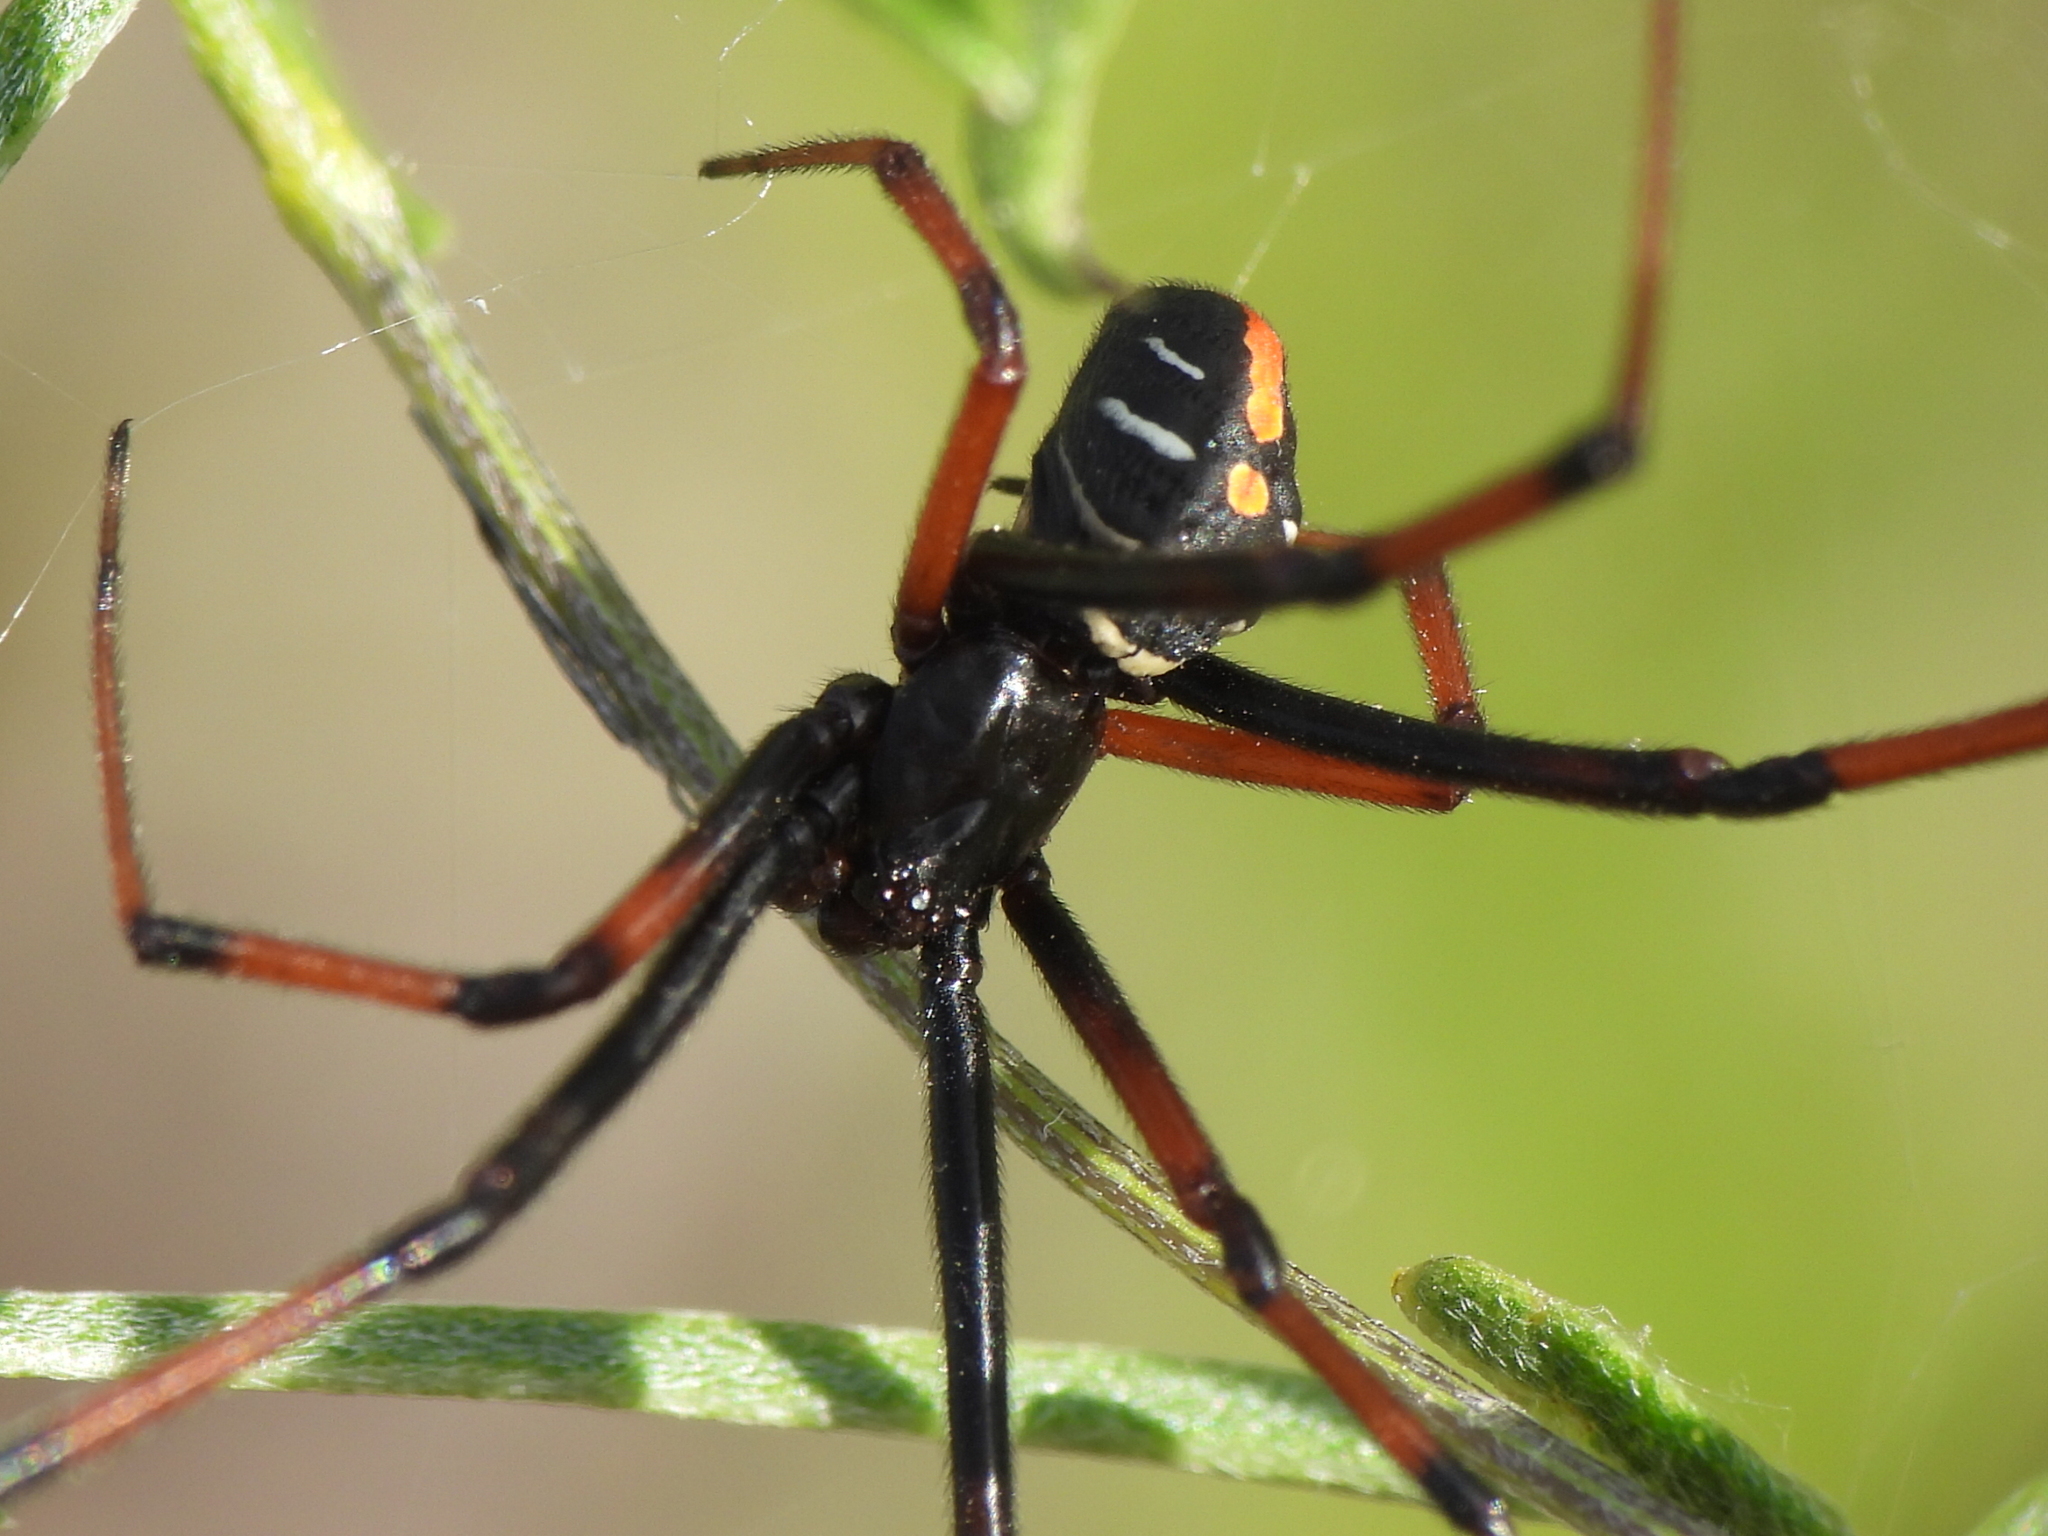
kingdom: Animalia
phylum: Arthropoda
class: Arachnida
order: Araneae
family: Theridiidae
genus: Latrodectus
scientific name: Latrodectus variolus
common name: Northern black widow
